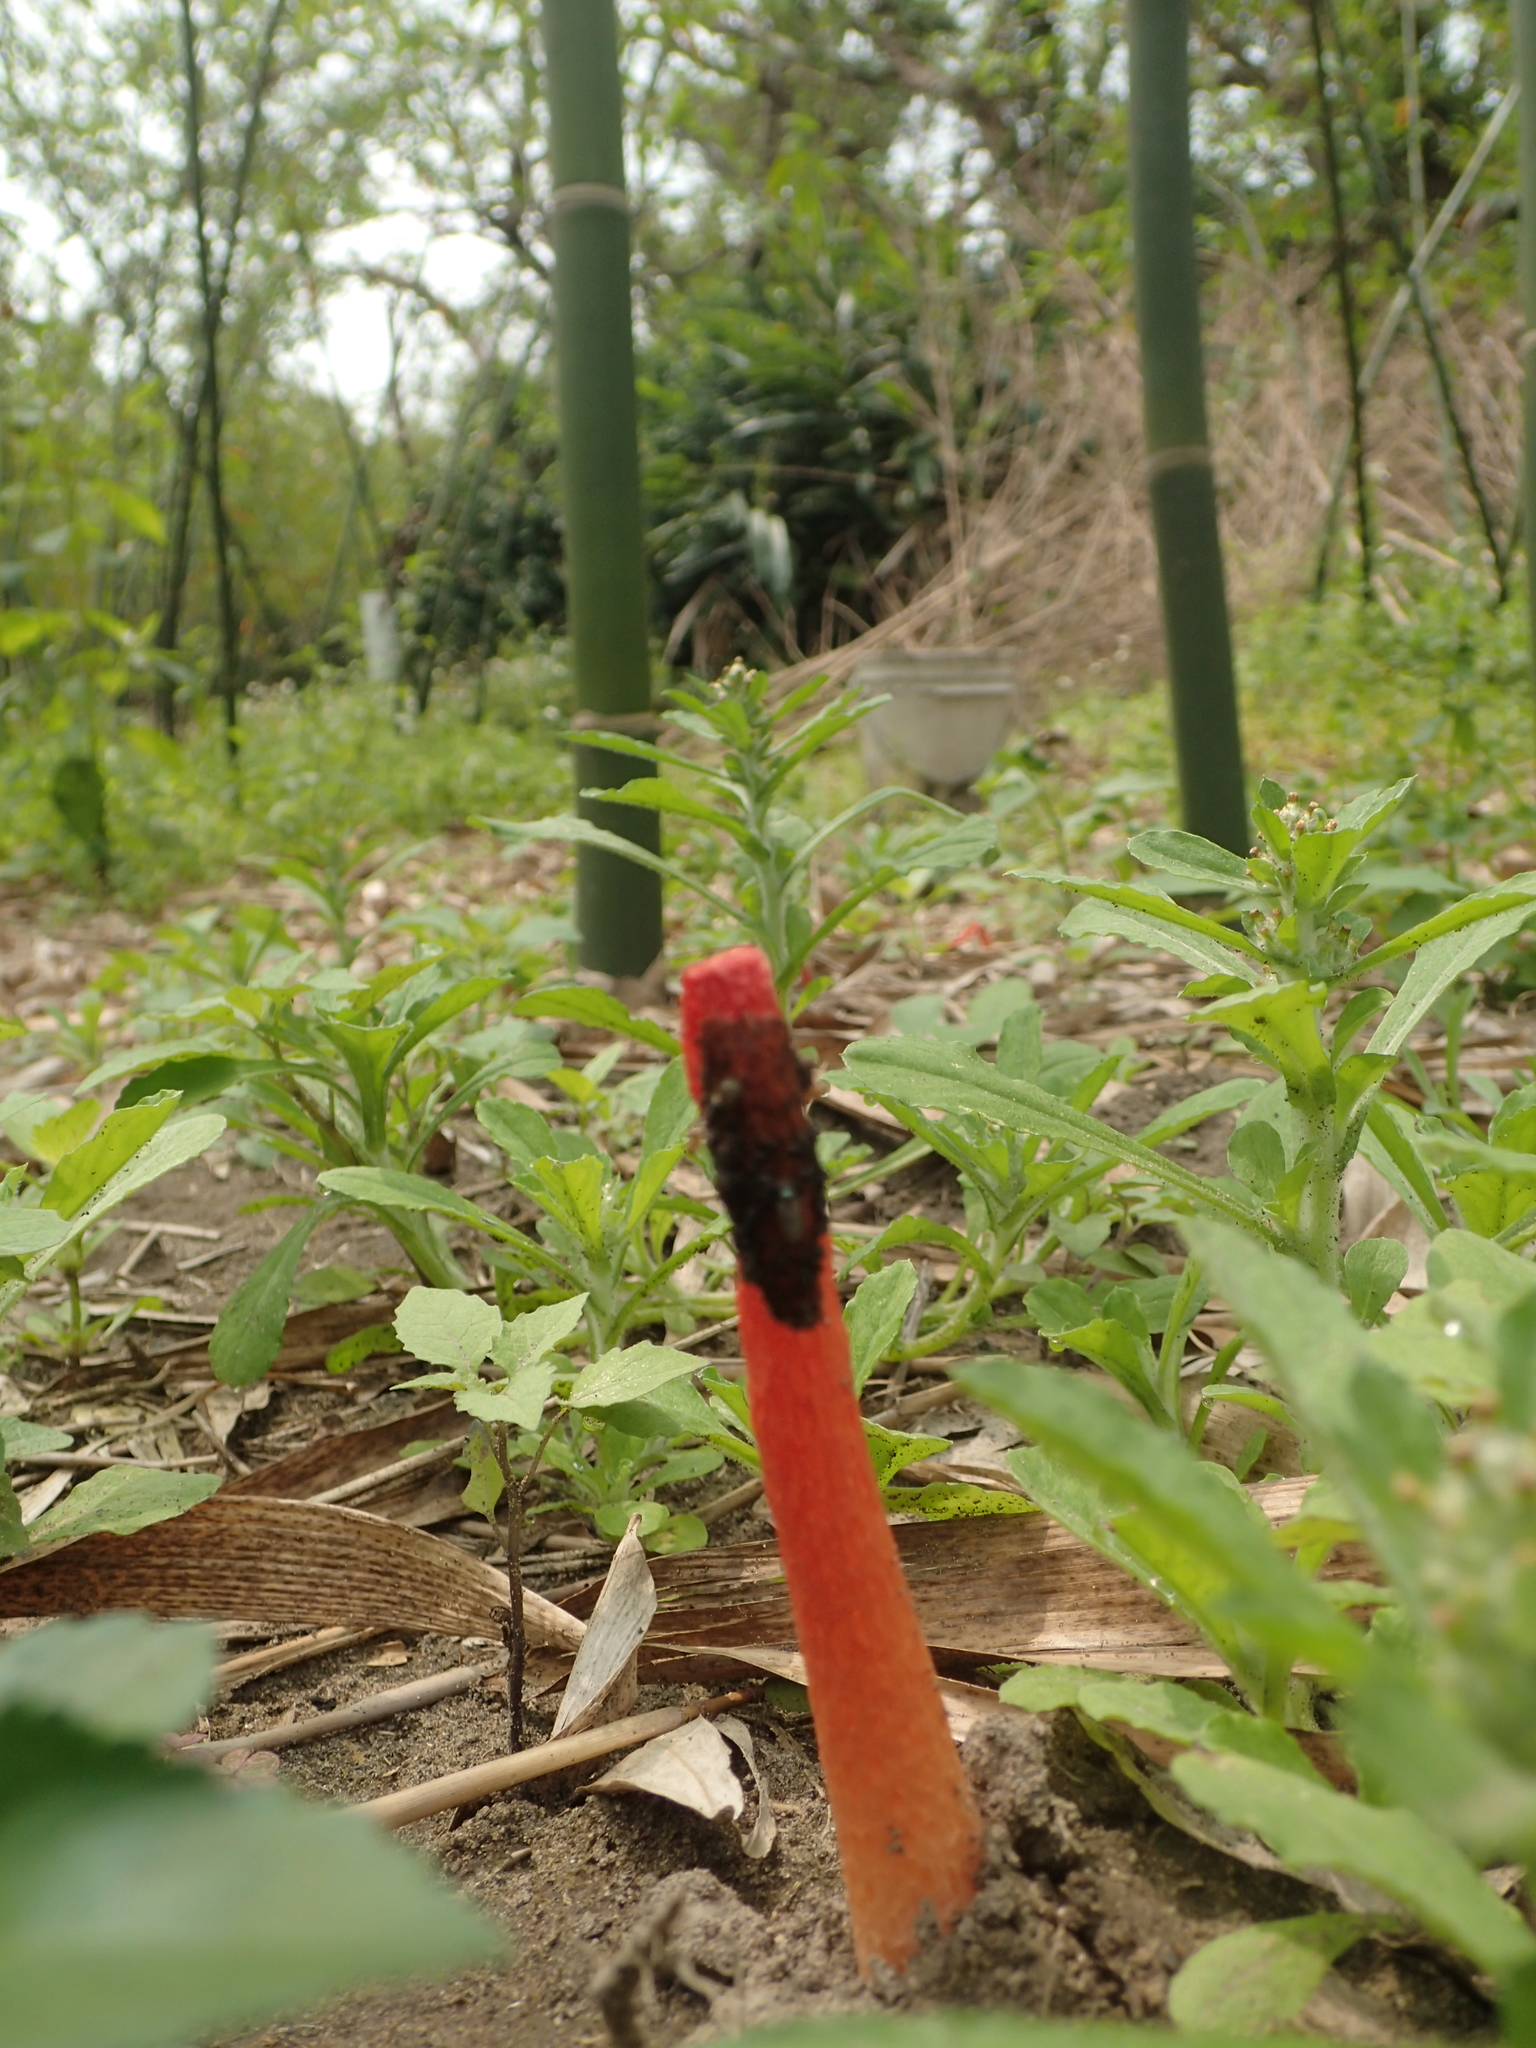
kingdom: Fungi
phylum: Basidiomycota
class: Agaricomycetes
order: Phallales
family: Phallaceae
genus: Phallus
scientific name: Phallus rugulosus
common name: Wrinkly stinkhorn
